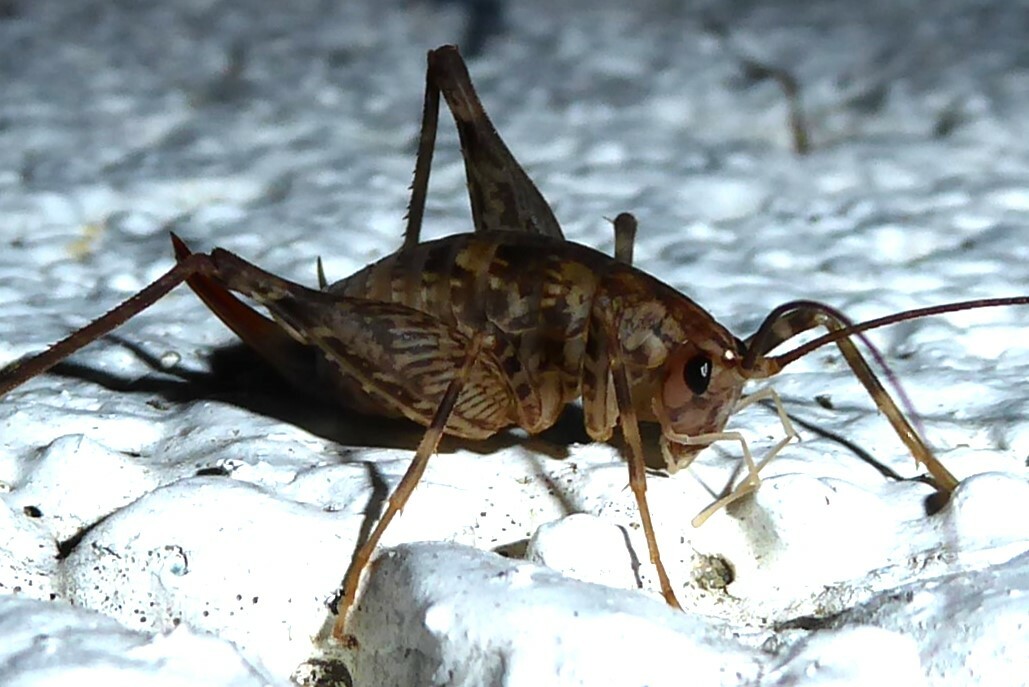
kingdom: Animalia
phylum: Arthropoda
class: Insecta
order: Orthoptera
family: Rhaphidophoridae
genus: Pleioplectron
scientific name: Pleioplectron simplex
